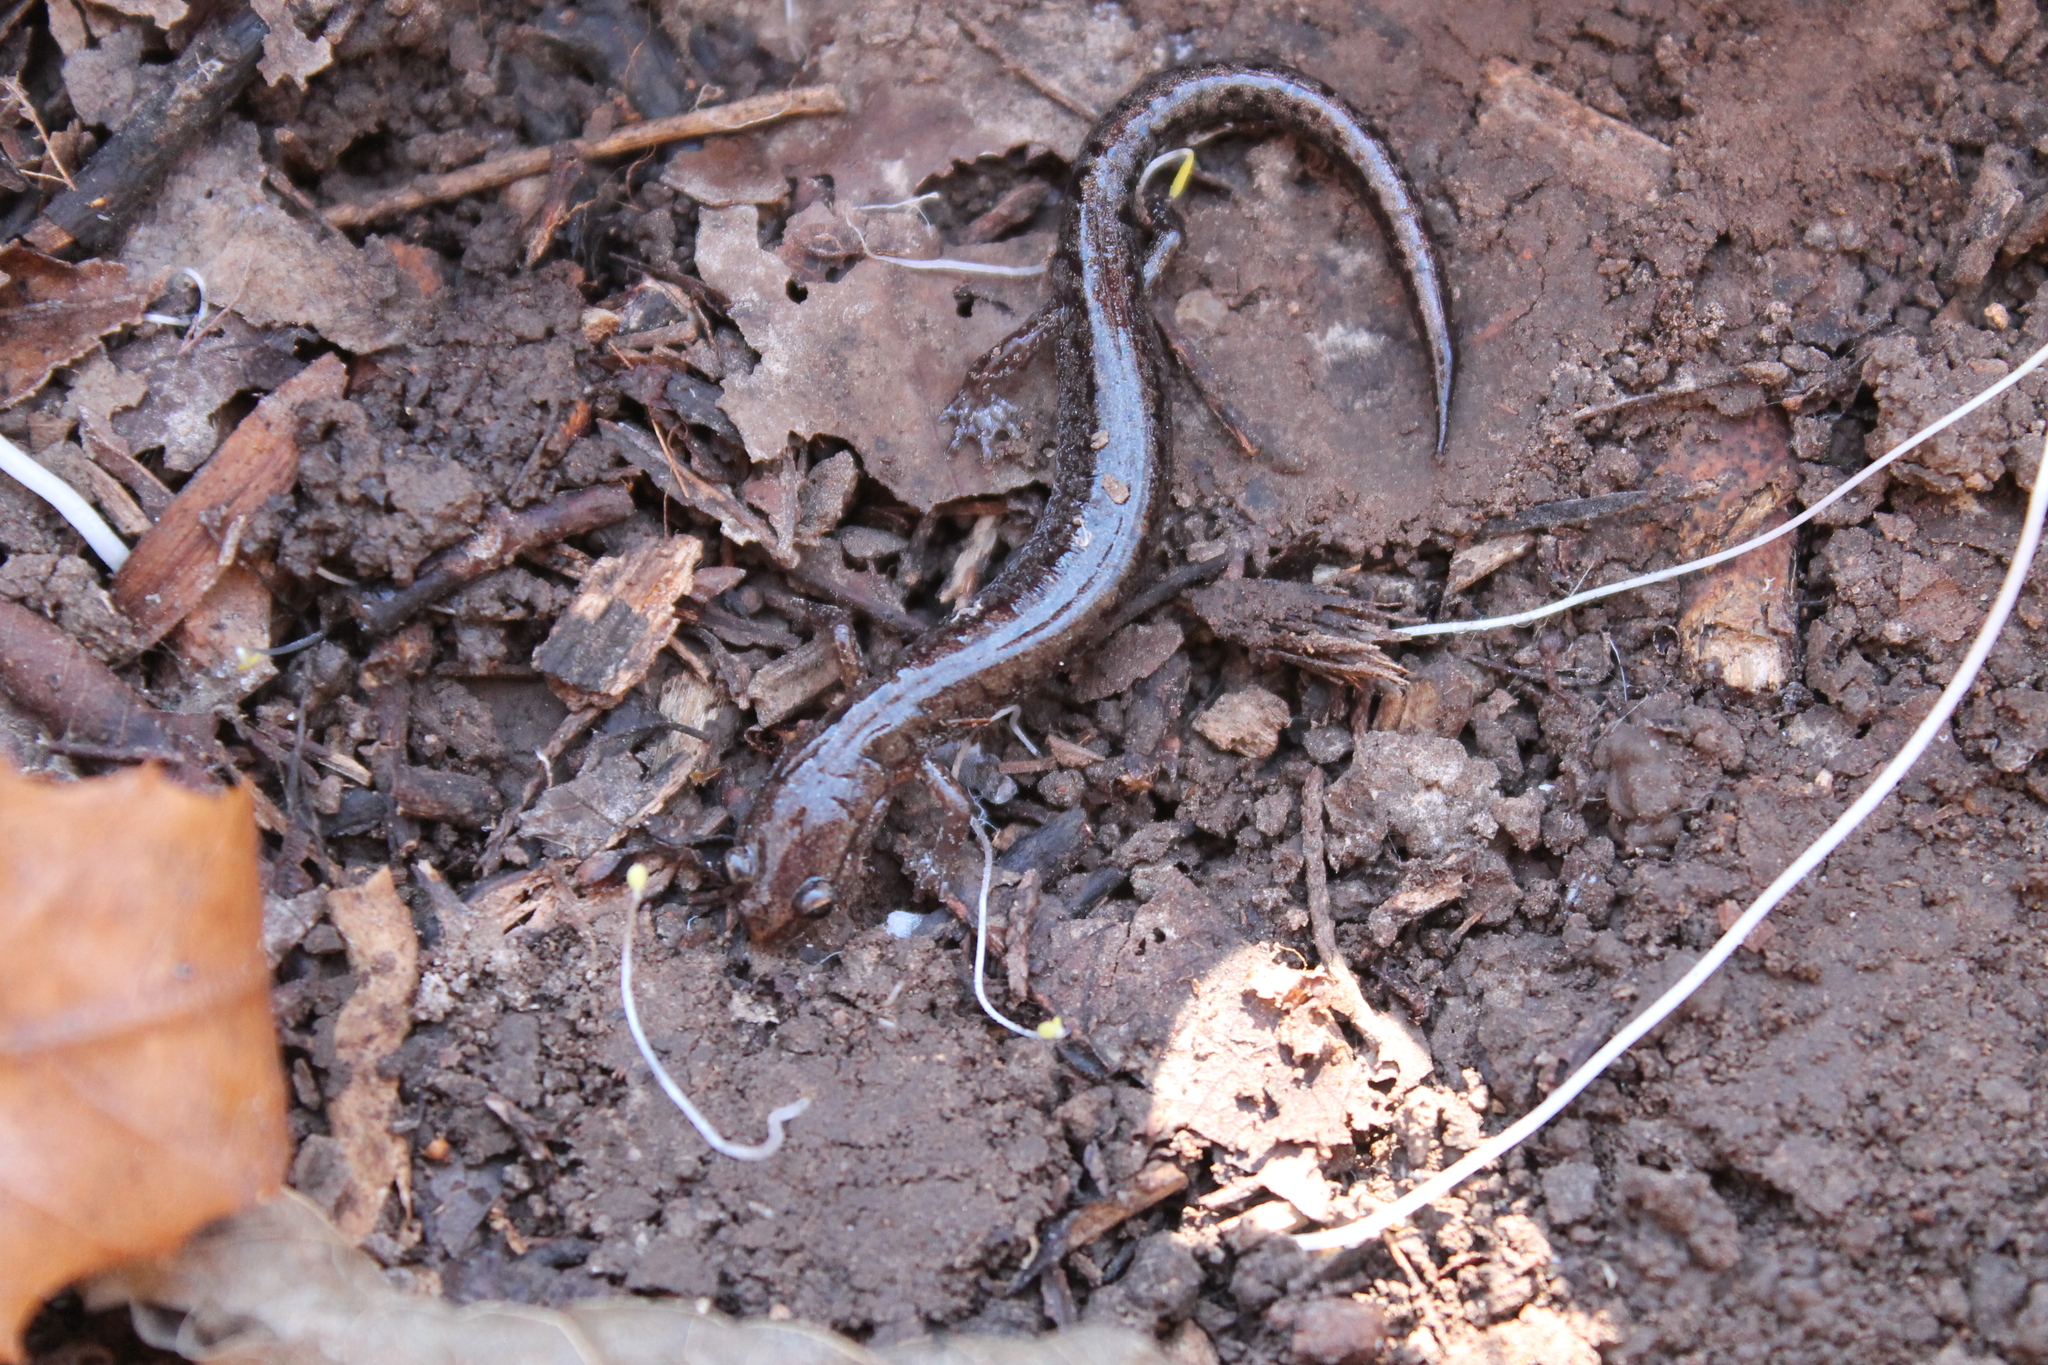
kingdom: Animalia
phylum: Chordata
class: Amphibia
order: Caudata
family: Plethodontidae
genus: Plethodon
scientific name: Plethodon dorsalis
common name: Northern zigzag salamander
